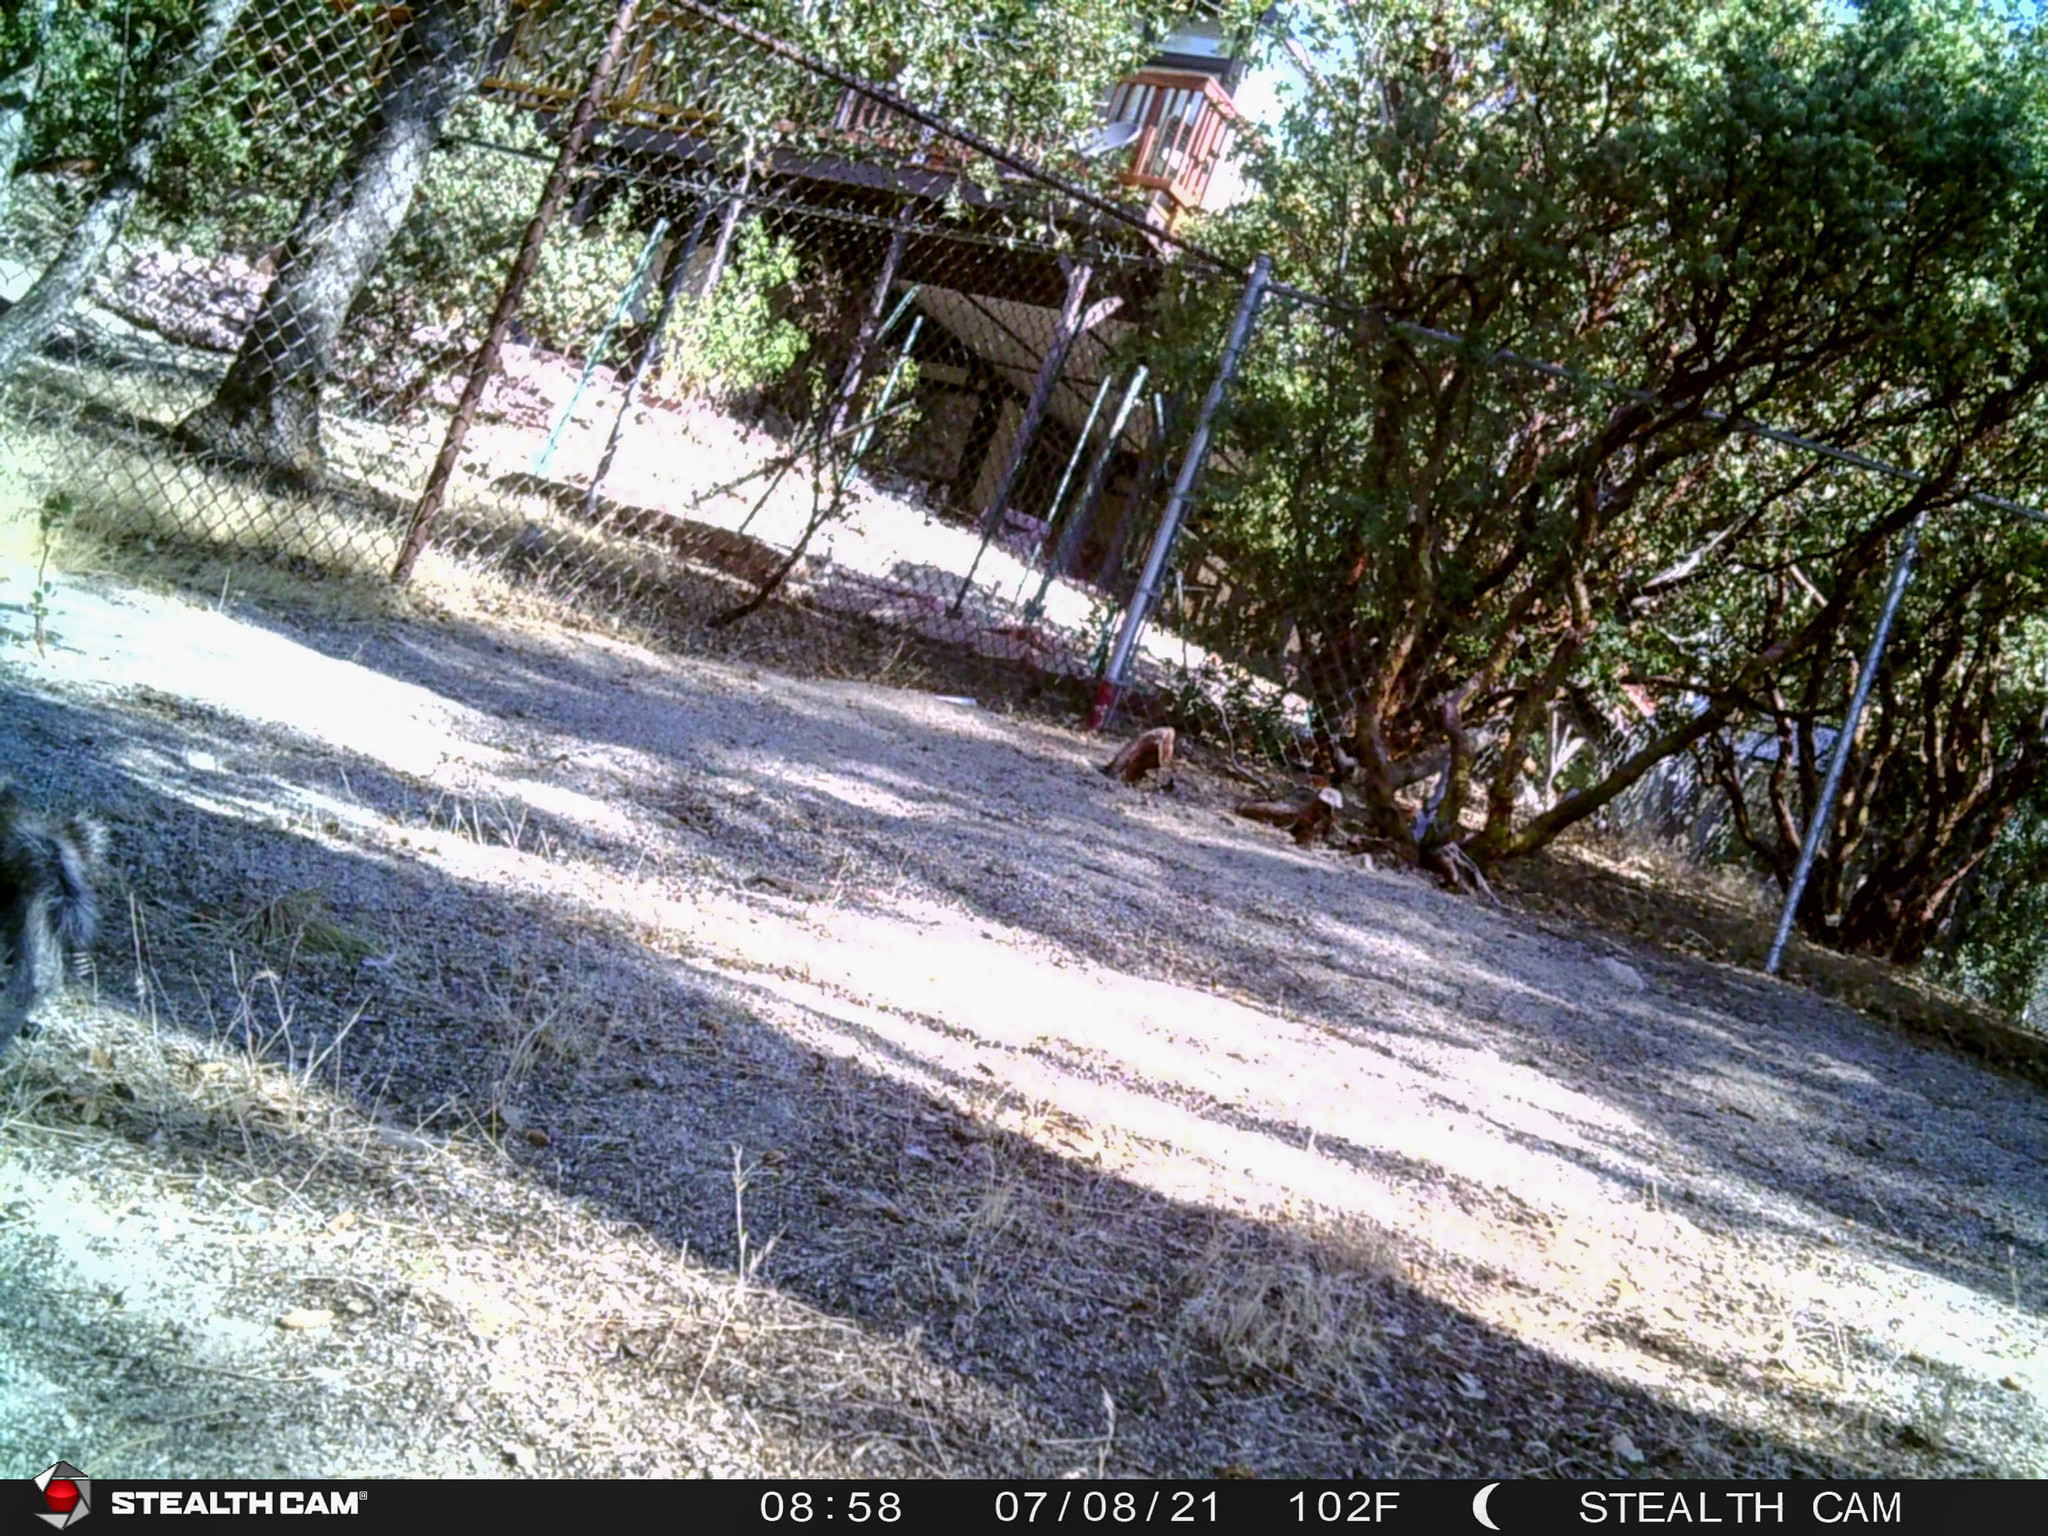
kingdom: Animalia
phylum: Chordata
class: Mammalia
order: Rodentia
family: Sciuridae
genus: Sciurus
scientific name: Sciurus griseus
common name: Western gray squirrel
